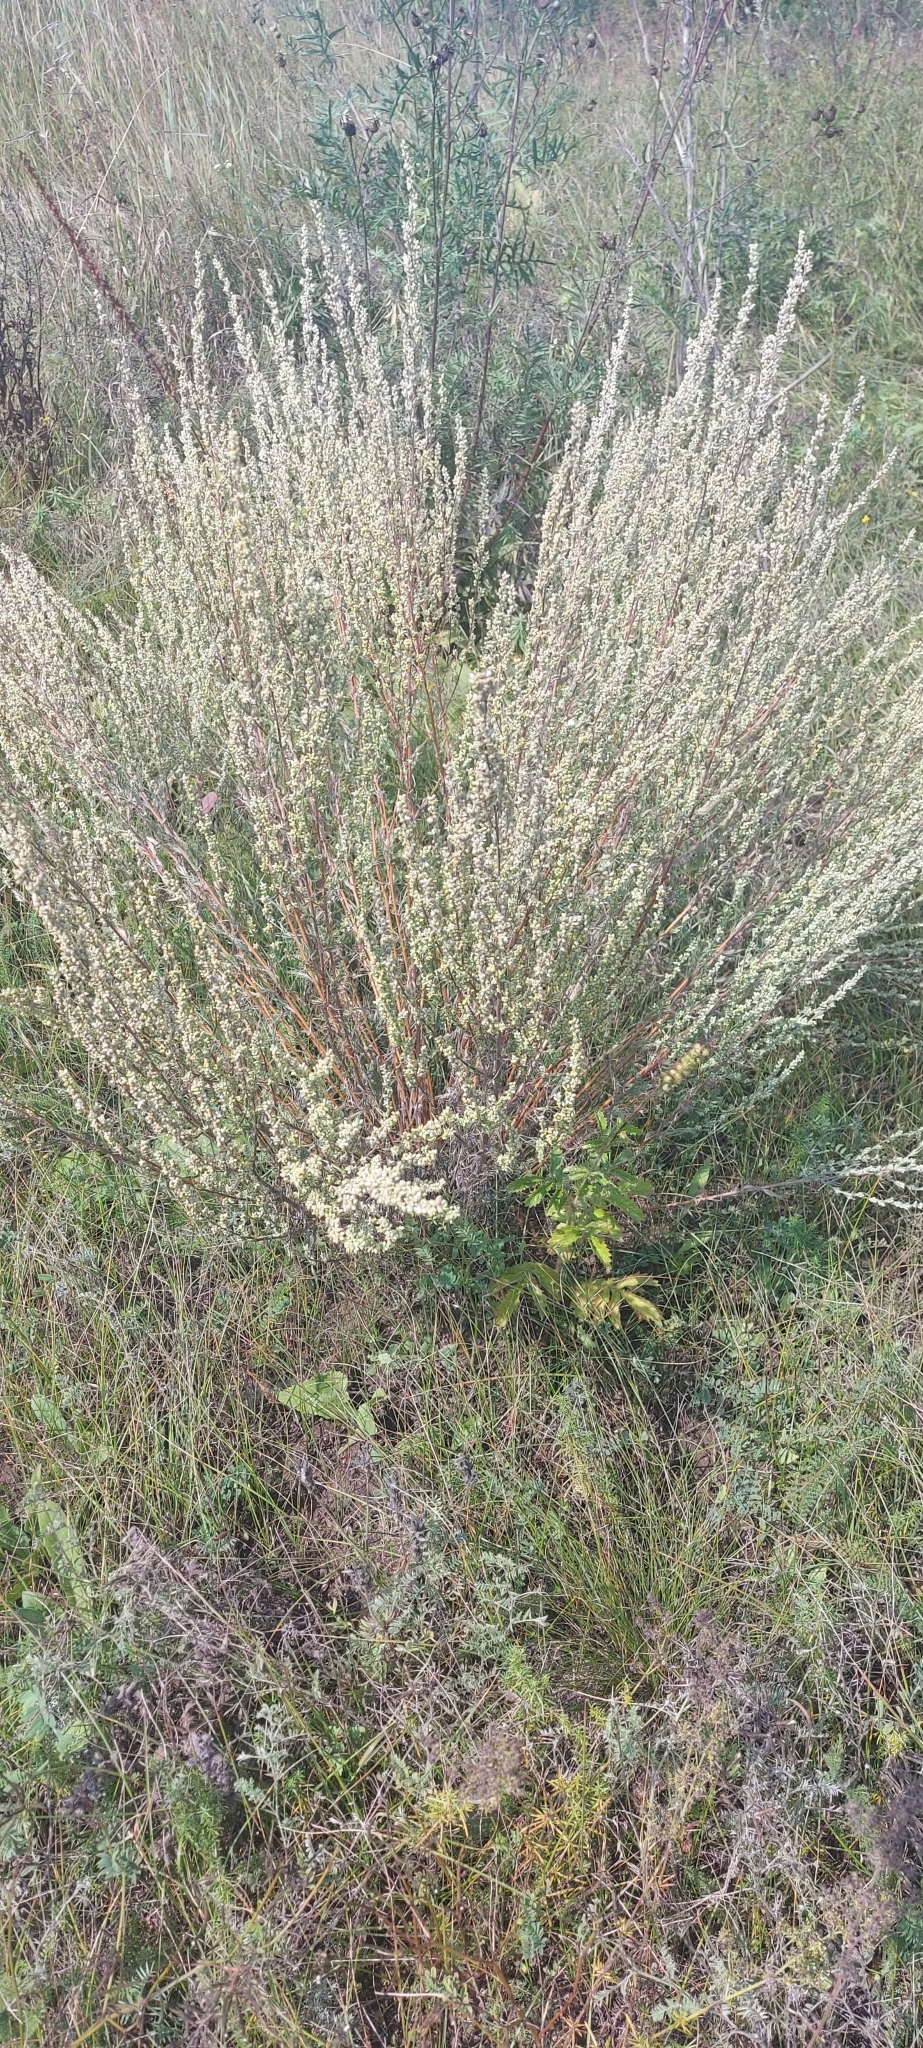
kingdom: Plantae
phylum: Tracheophyta
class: Magnoliopsida
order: Asterales
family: Asteraceae
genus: Artemisia
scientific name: Artemisia campestris
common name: Field wormwood
